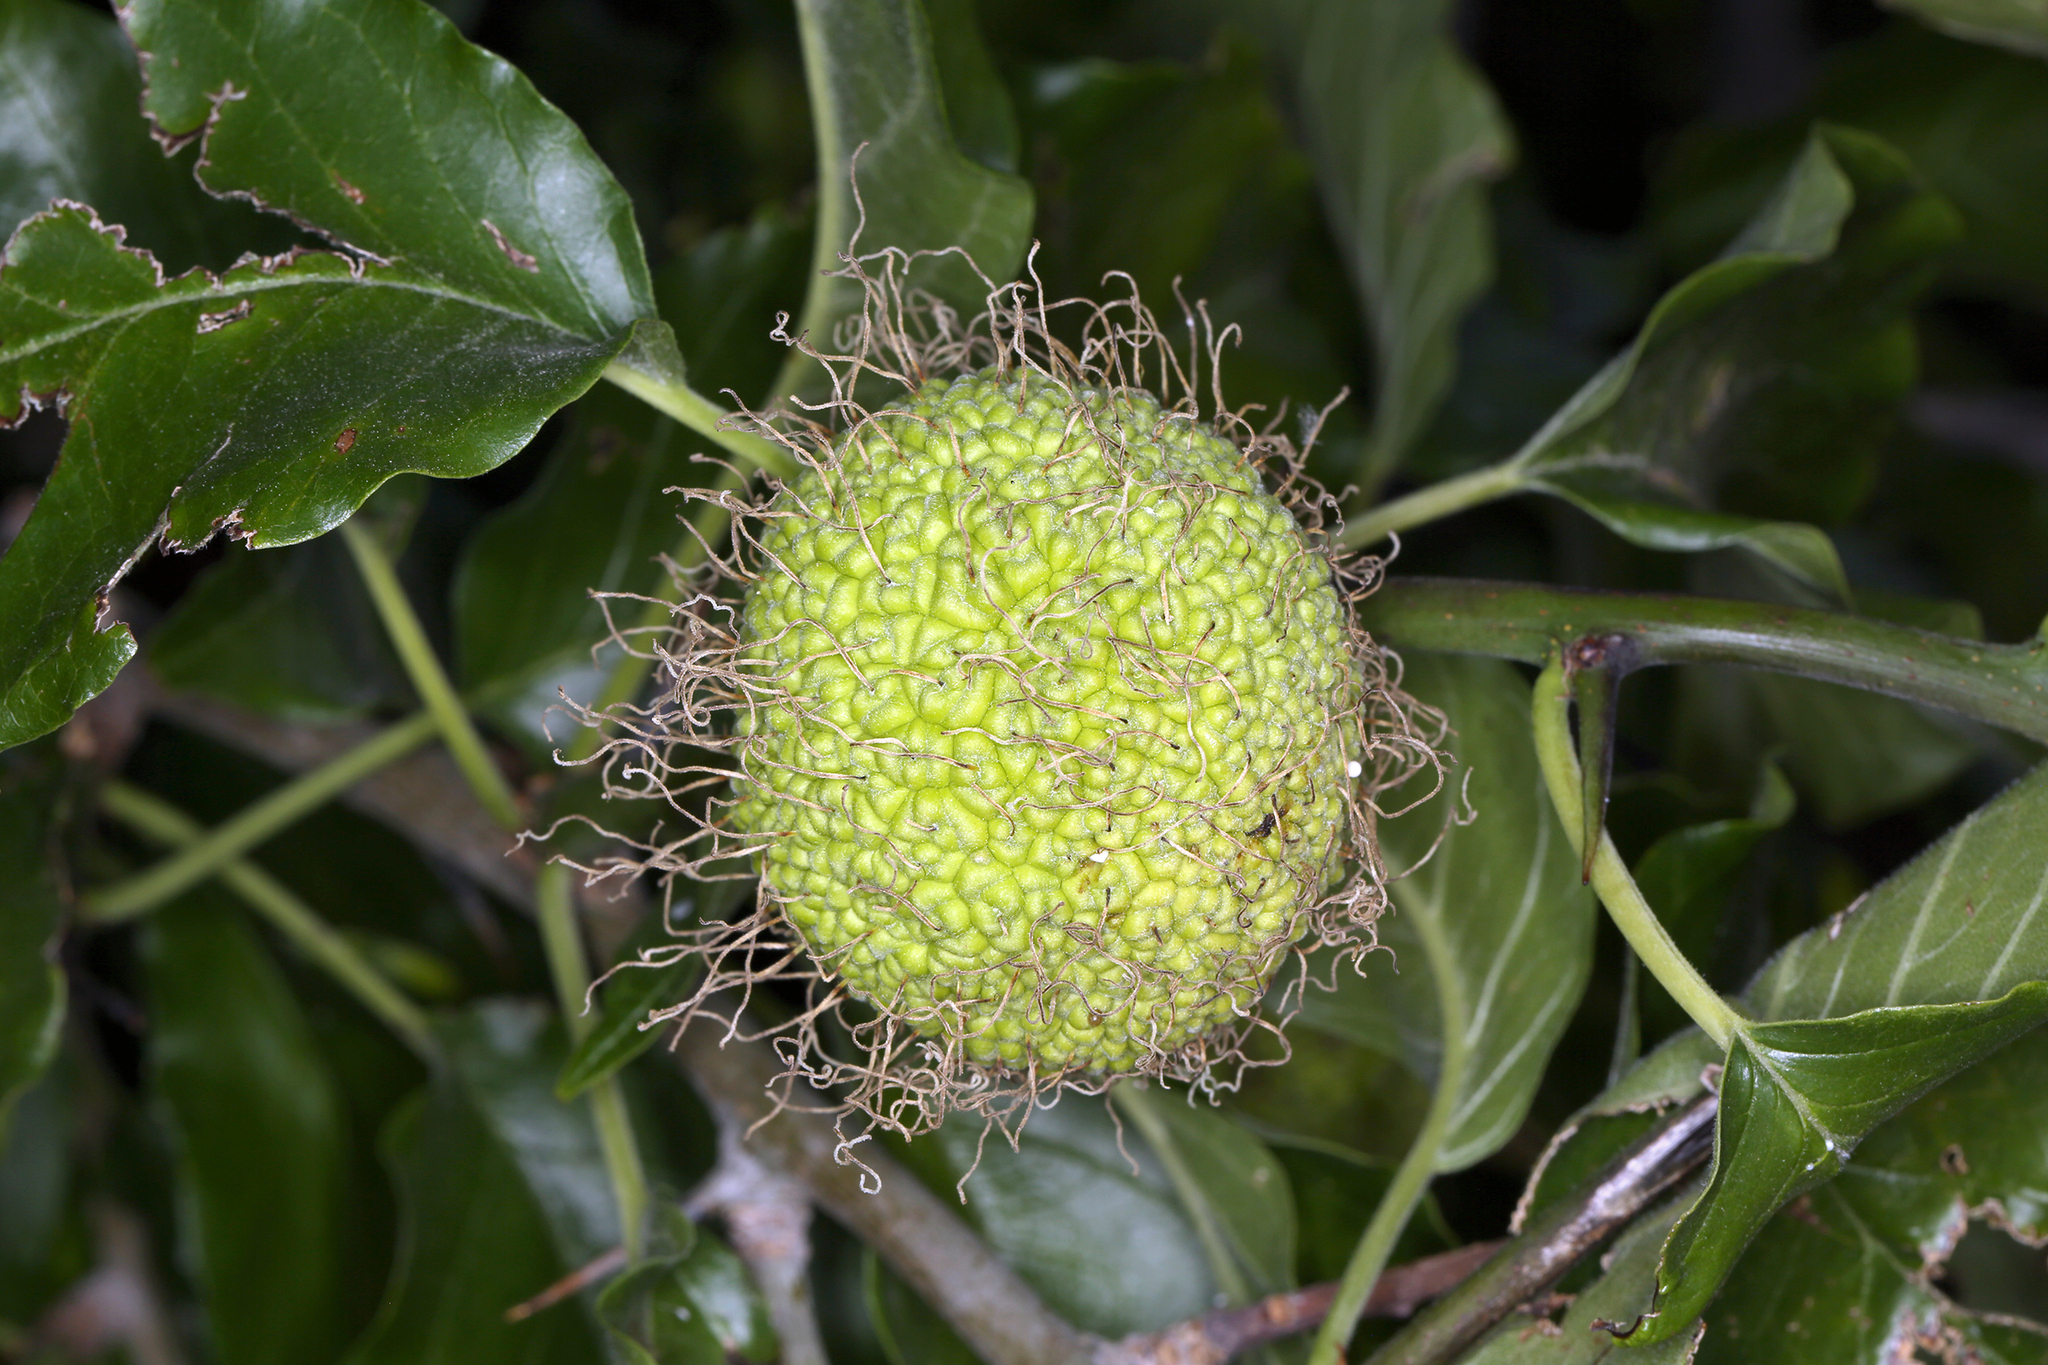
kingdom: Plantae
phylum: Tracheophyta
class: Magnoliopsida
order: Rosales
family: Moraceae
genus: Maclura
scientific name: Maclura pomifera
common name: Osage-orange
